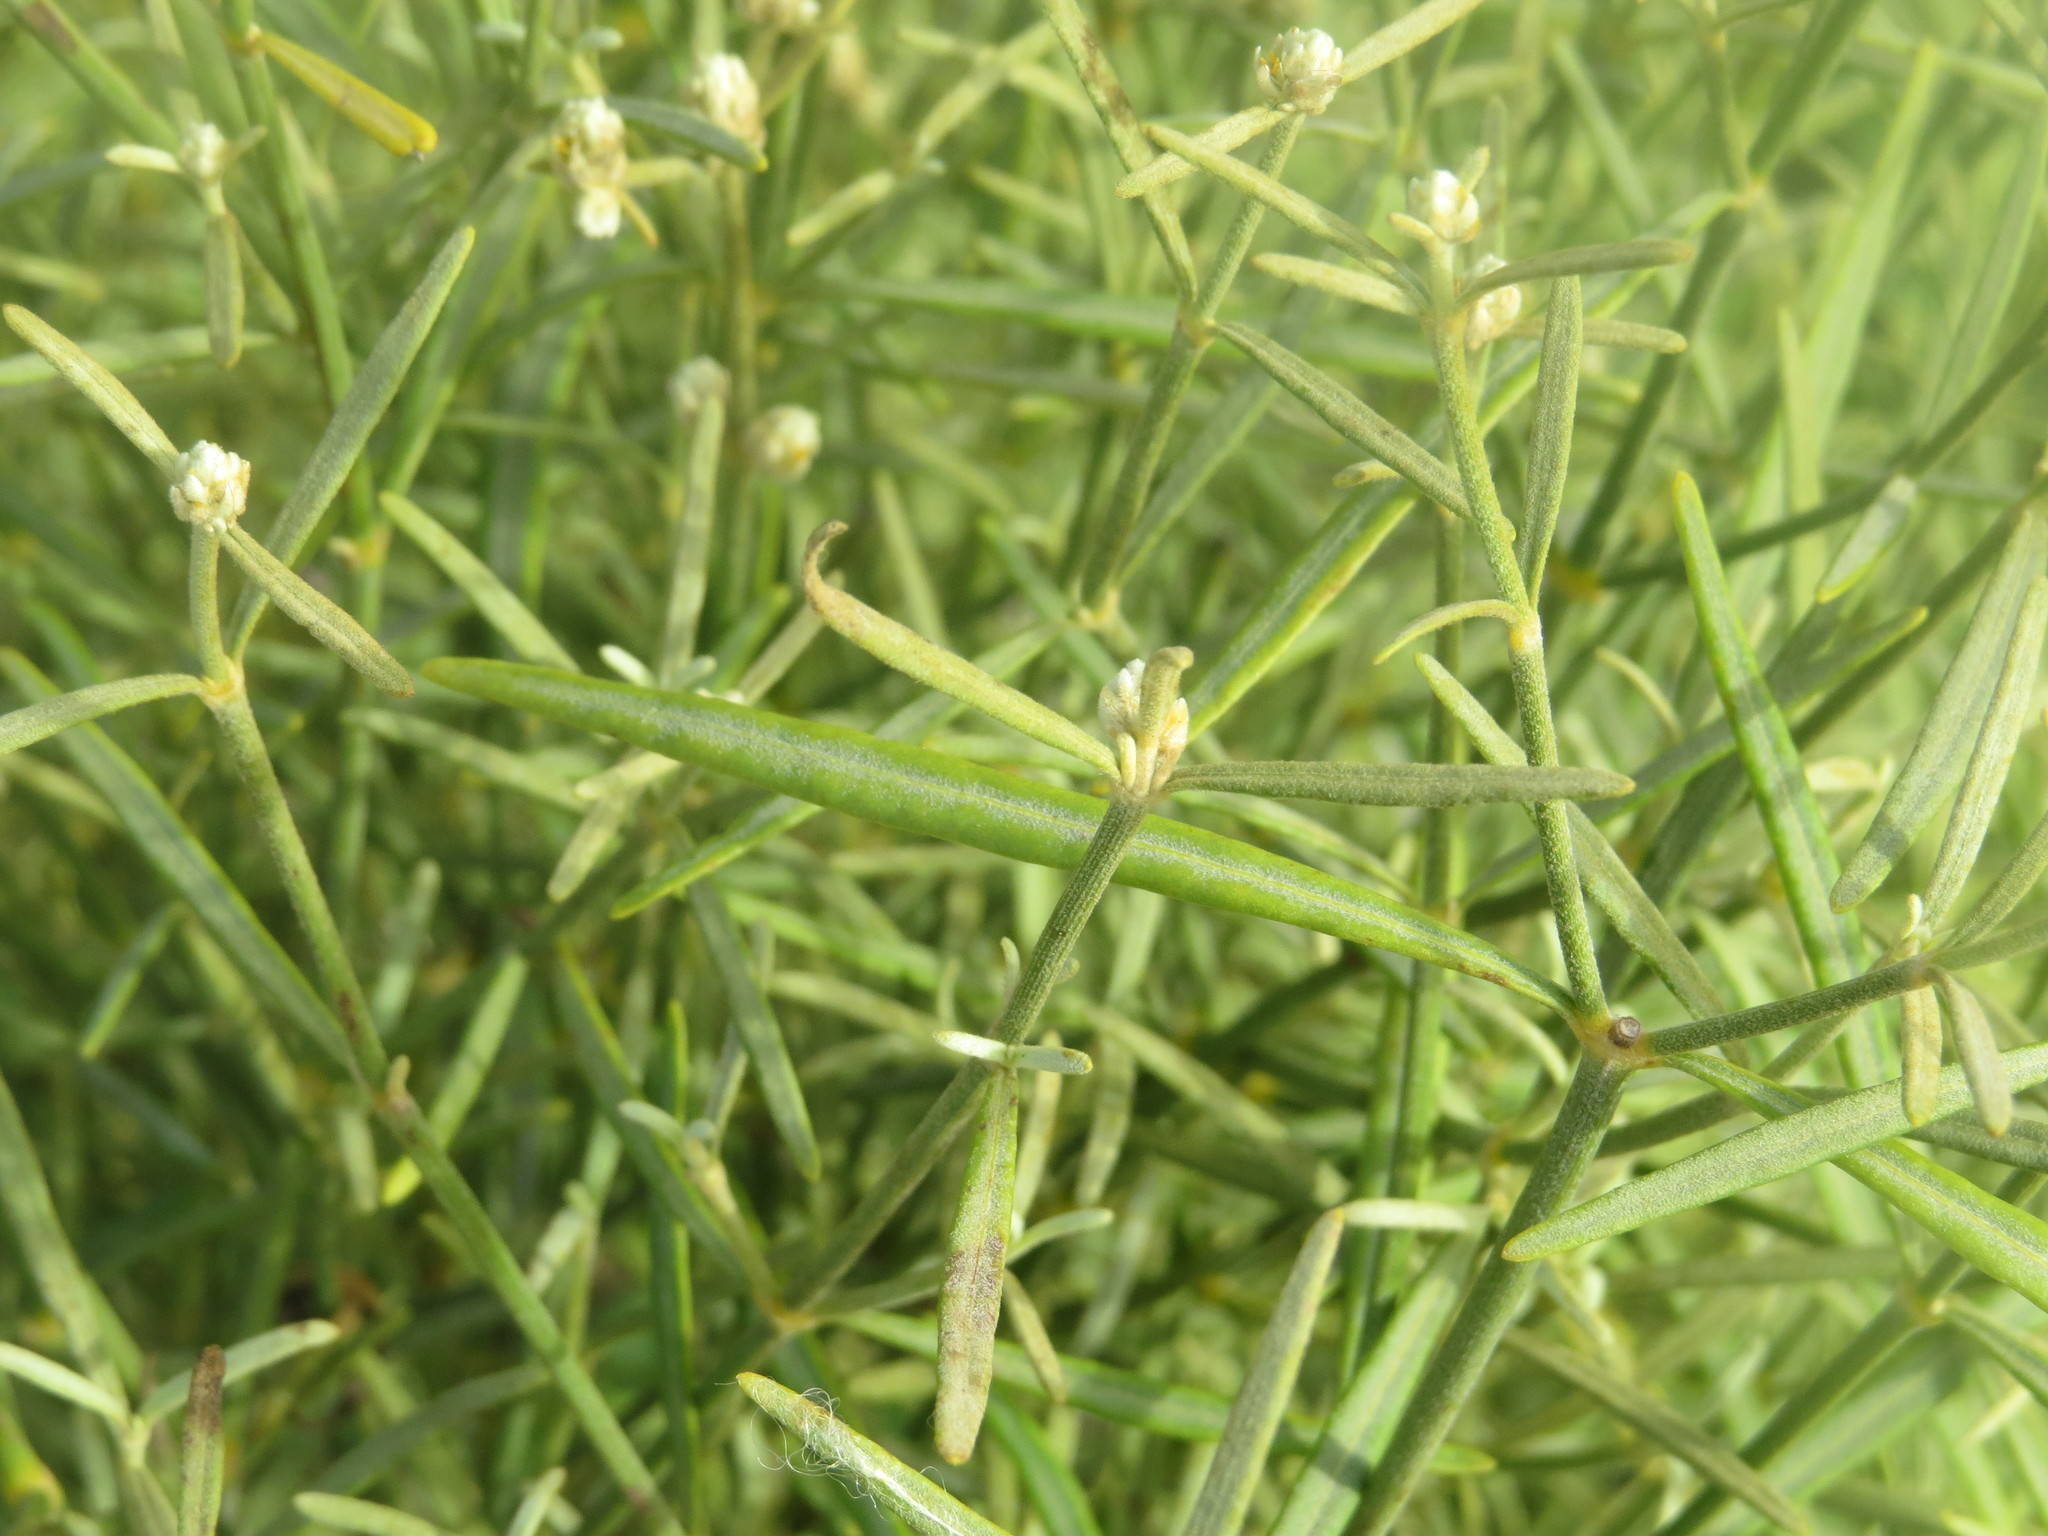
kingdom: Plantae
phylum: Tracheophyta
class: Magnoliopsida
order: Caryophyllales
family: Amaranthaceae
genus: Alternanthera
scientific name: Alternanthera flavicoma
